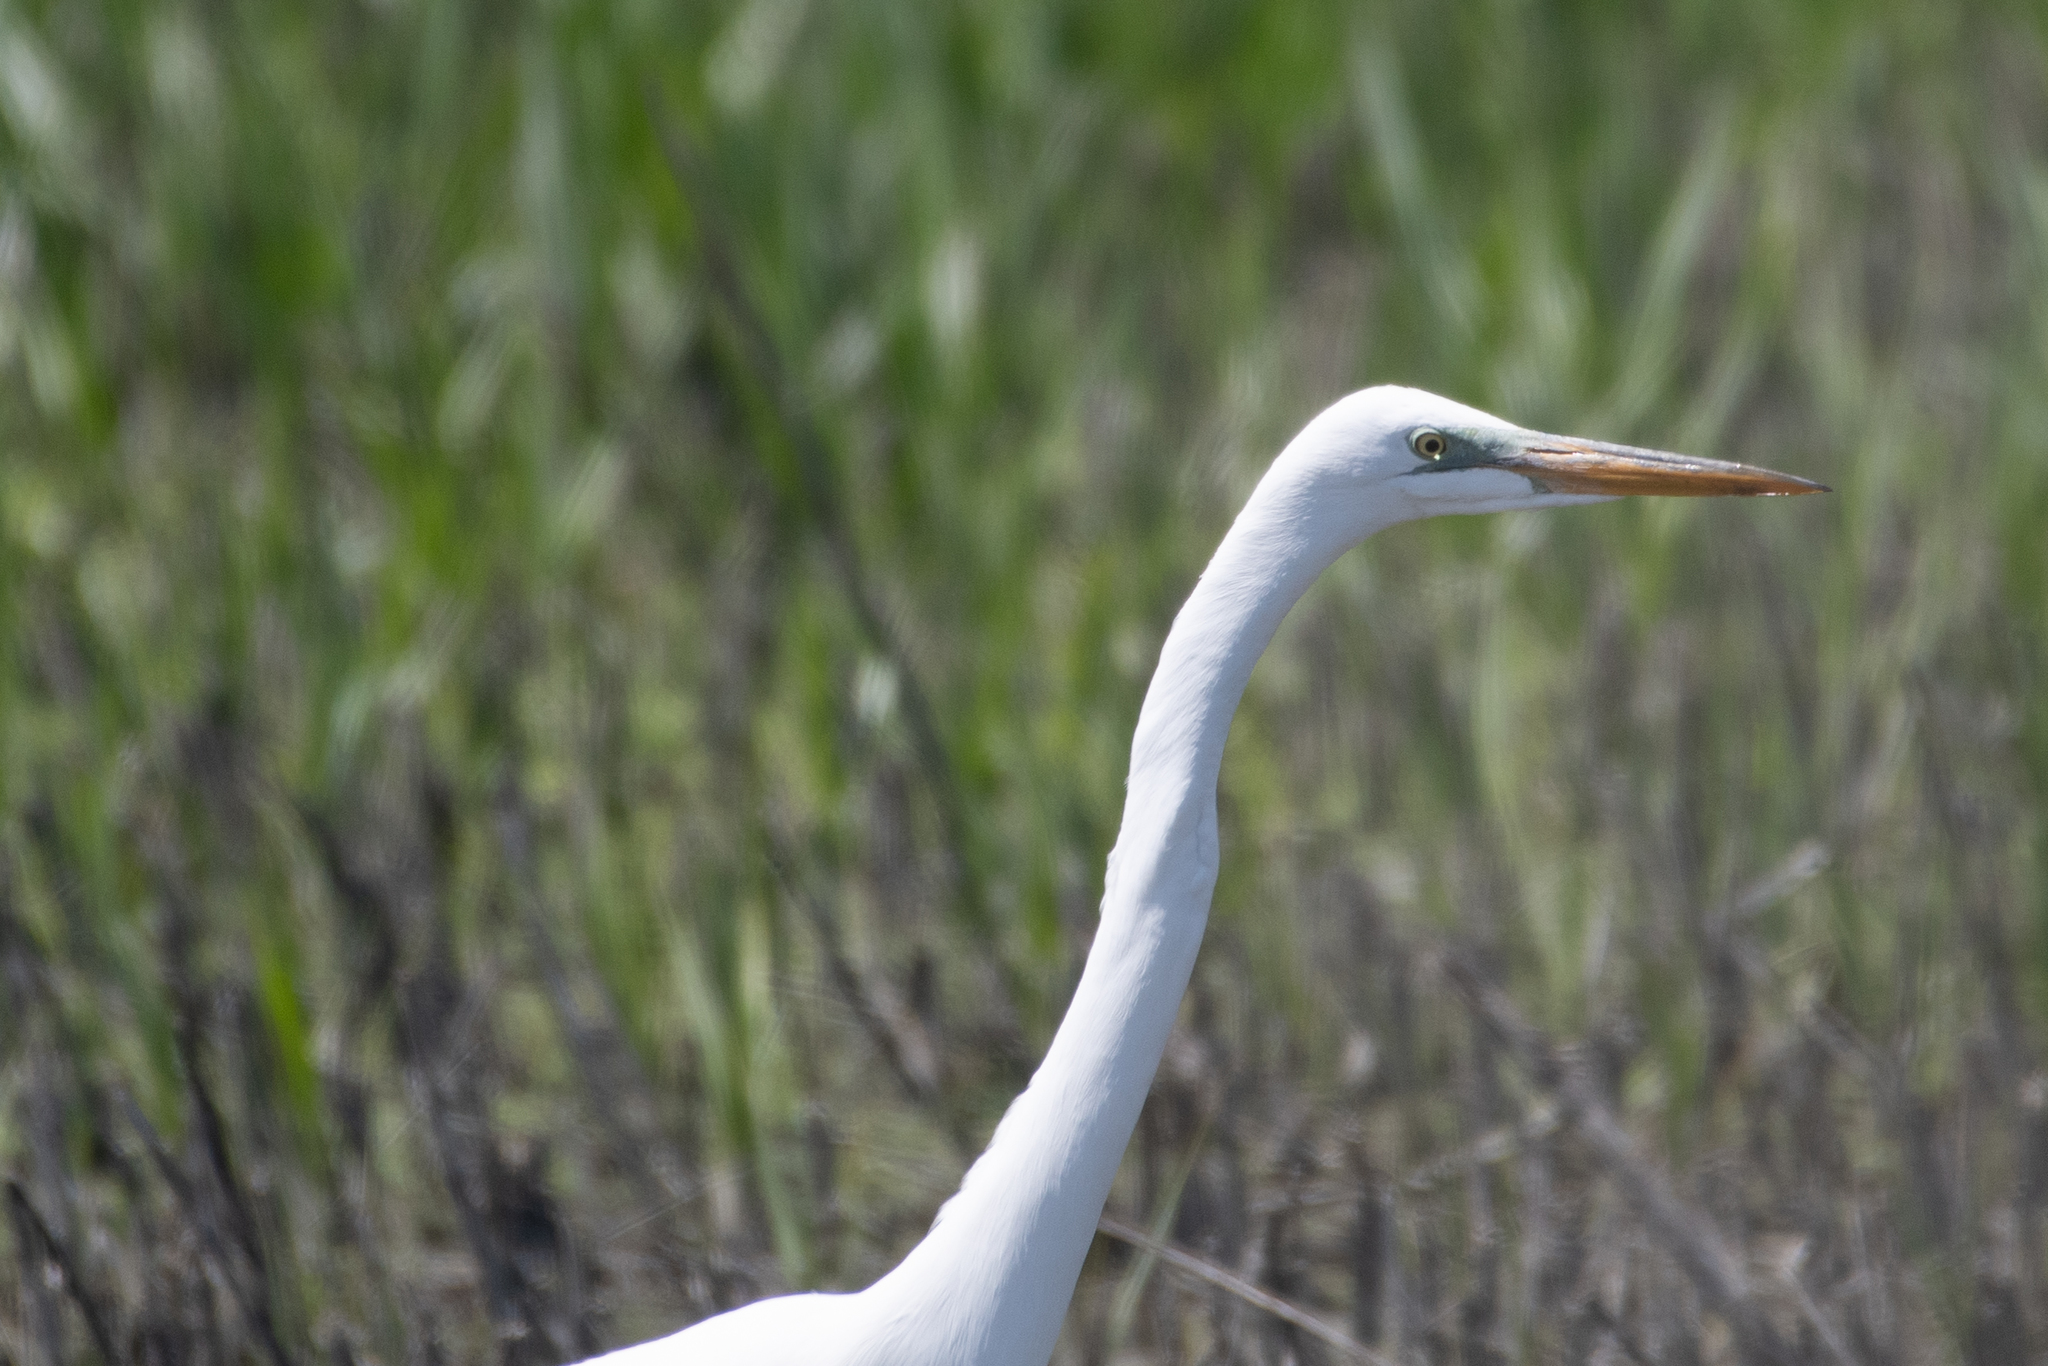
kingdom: Animalia
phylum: Chordata
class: Aves
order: Pelecaniformes
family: Ardeidae
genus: Ardea
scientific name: Ardea alba
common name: Great egret
